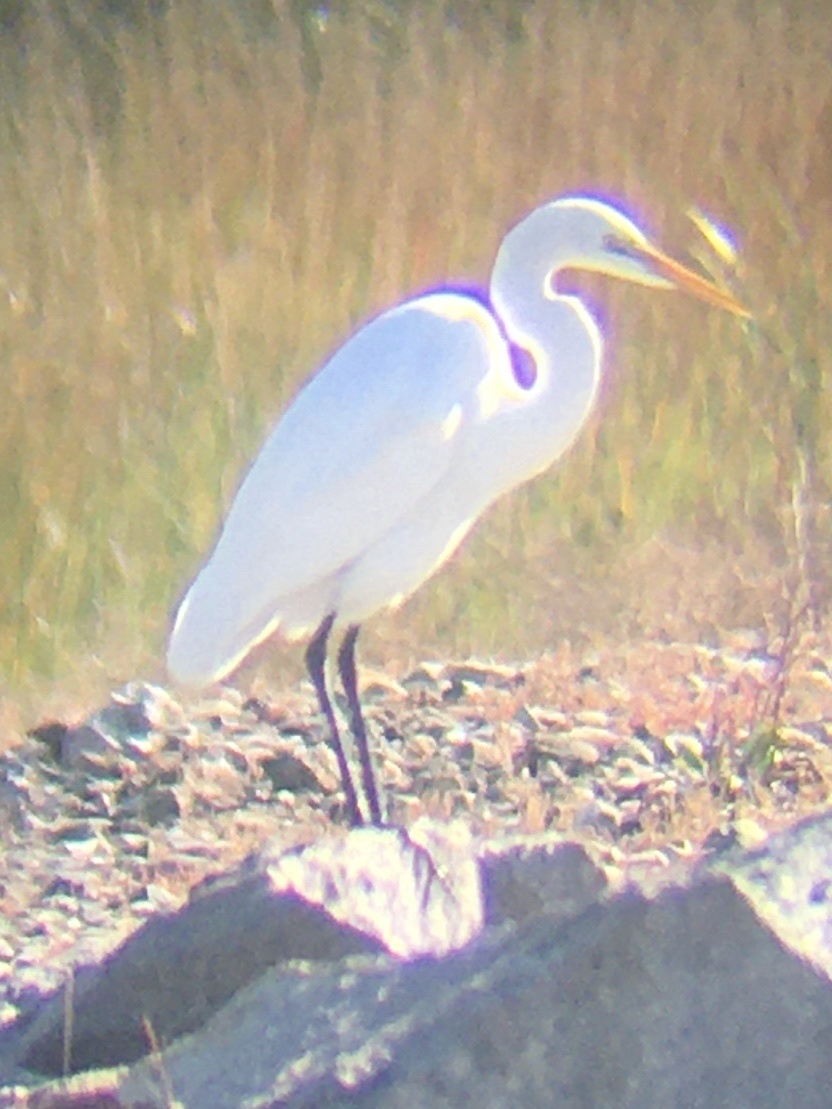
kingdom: Animalia
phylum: Chordata
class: Aves
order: Pelecaniformes
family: Ardeidae
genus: Ardea
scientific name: Ardea alba
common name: Great egret
